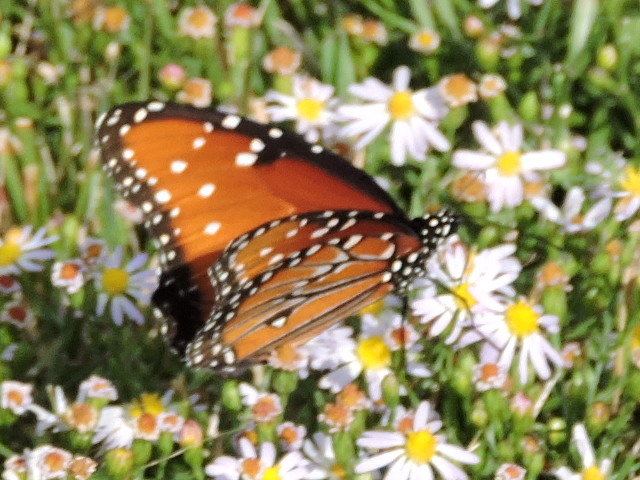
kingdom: Animalia
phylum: Arthropoda
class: Insecta
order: Lepidoptera
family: Nymphalidae
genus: Danaus
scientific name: Danaus gilippus
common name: Queen
